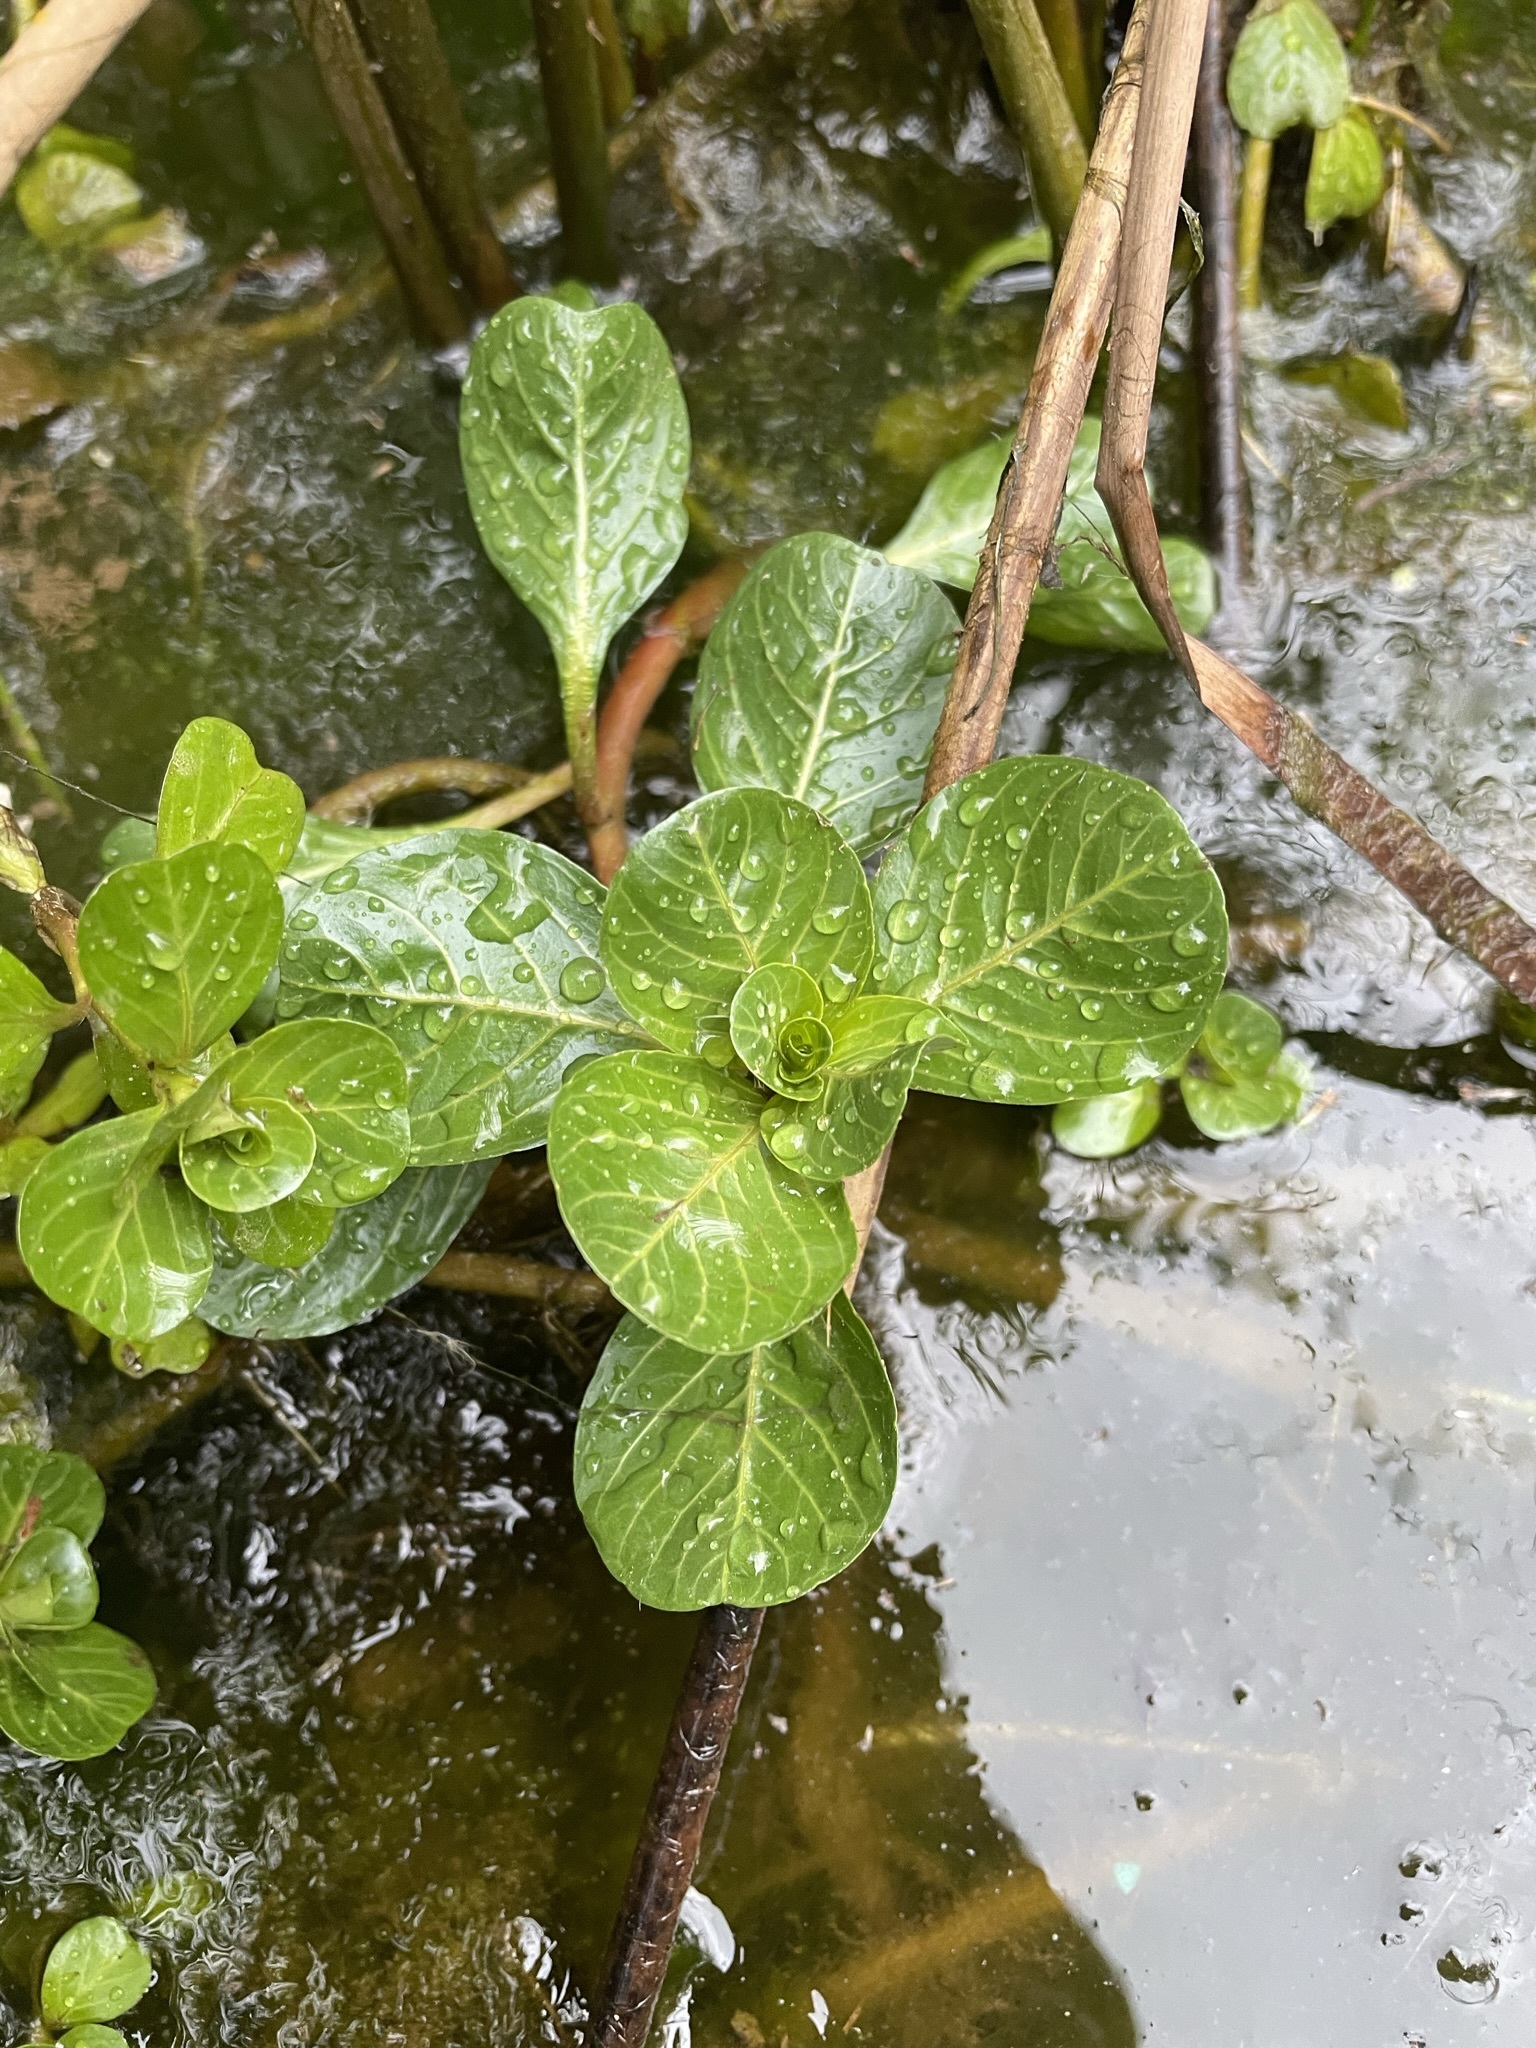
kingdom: Plantae
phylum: Tracheophyta
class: Magnoliopsida
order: Myrtales
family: Onagraceae
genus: Ludwigia
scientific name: Ludwigia peploides
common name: Floating primrose-willow
